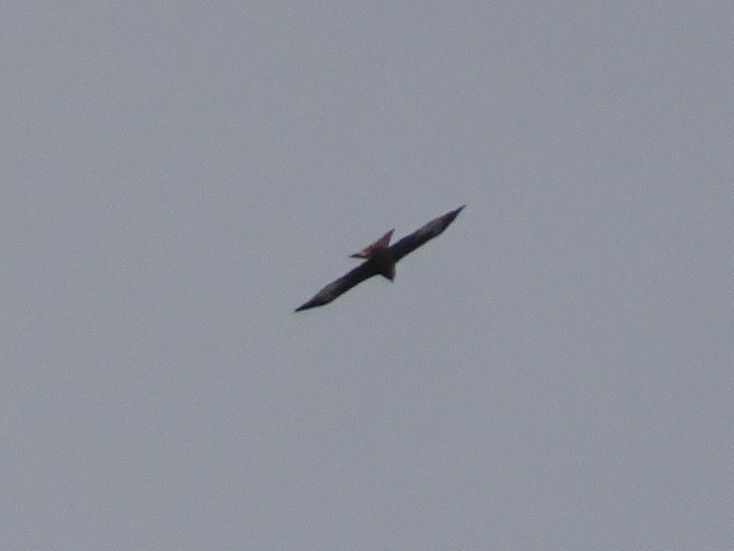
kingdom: Animalia
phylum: Chordata
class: Aves
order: Accipitriformes
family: Accipitridae
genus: Milvus
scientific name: Milvus milvus
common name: Red kite
